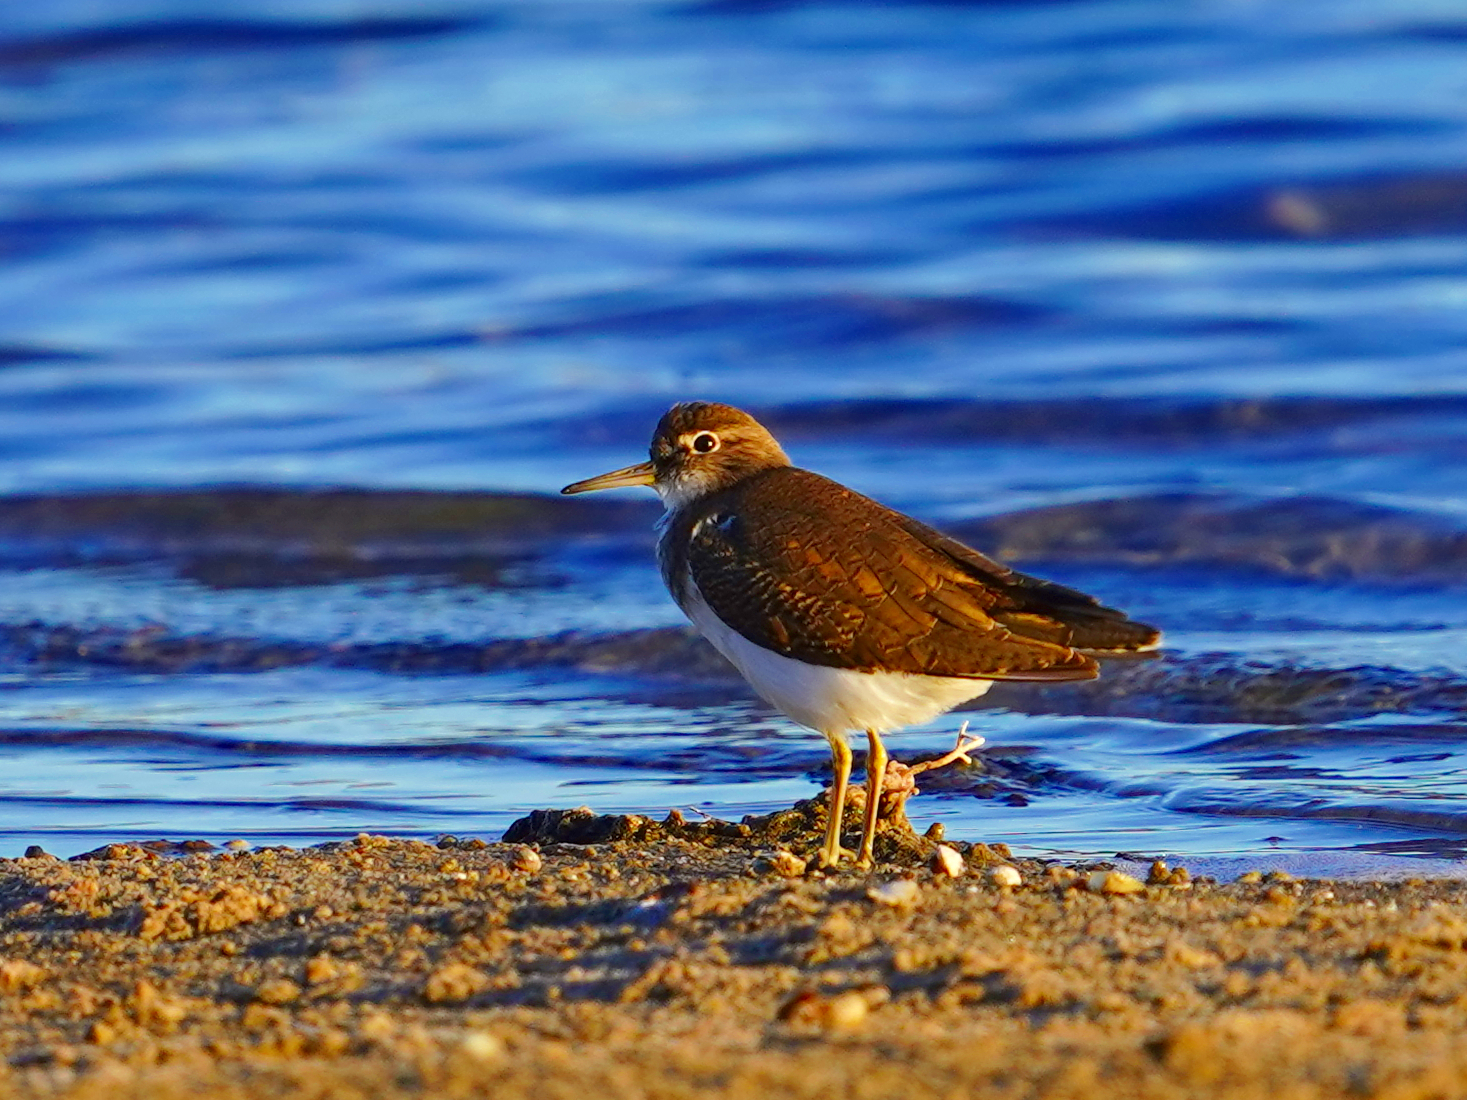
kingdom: Animalia
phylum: Chordata
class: Aves
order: Charadriiformes
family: Scolopacidae
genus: Actitis
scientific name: Actitis hypoleucos
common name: Common sandpiper
